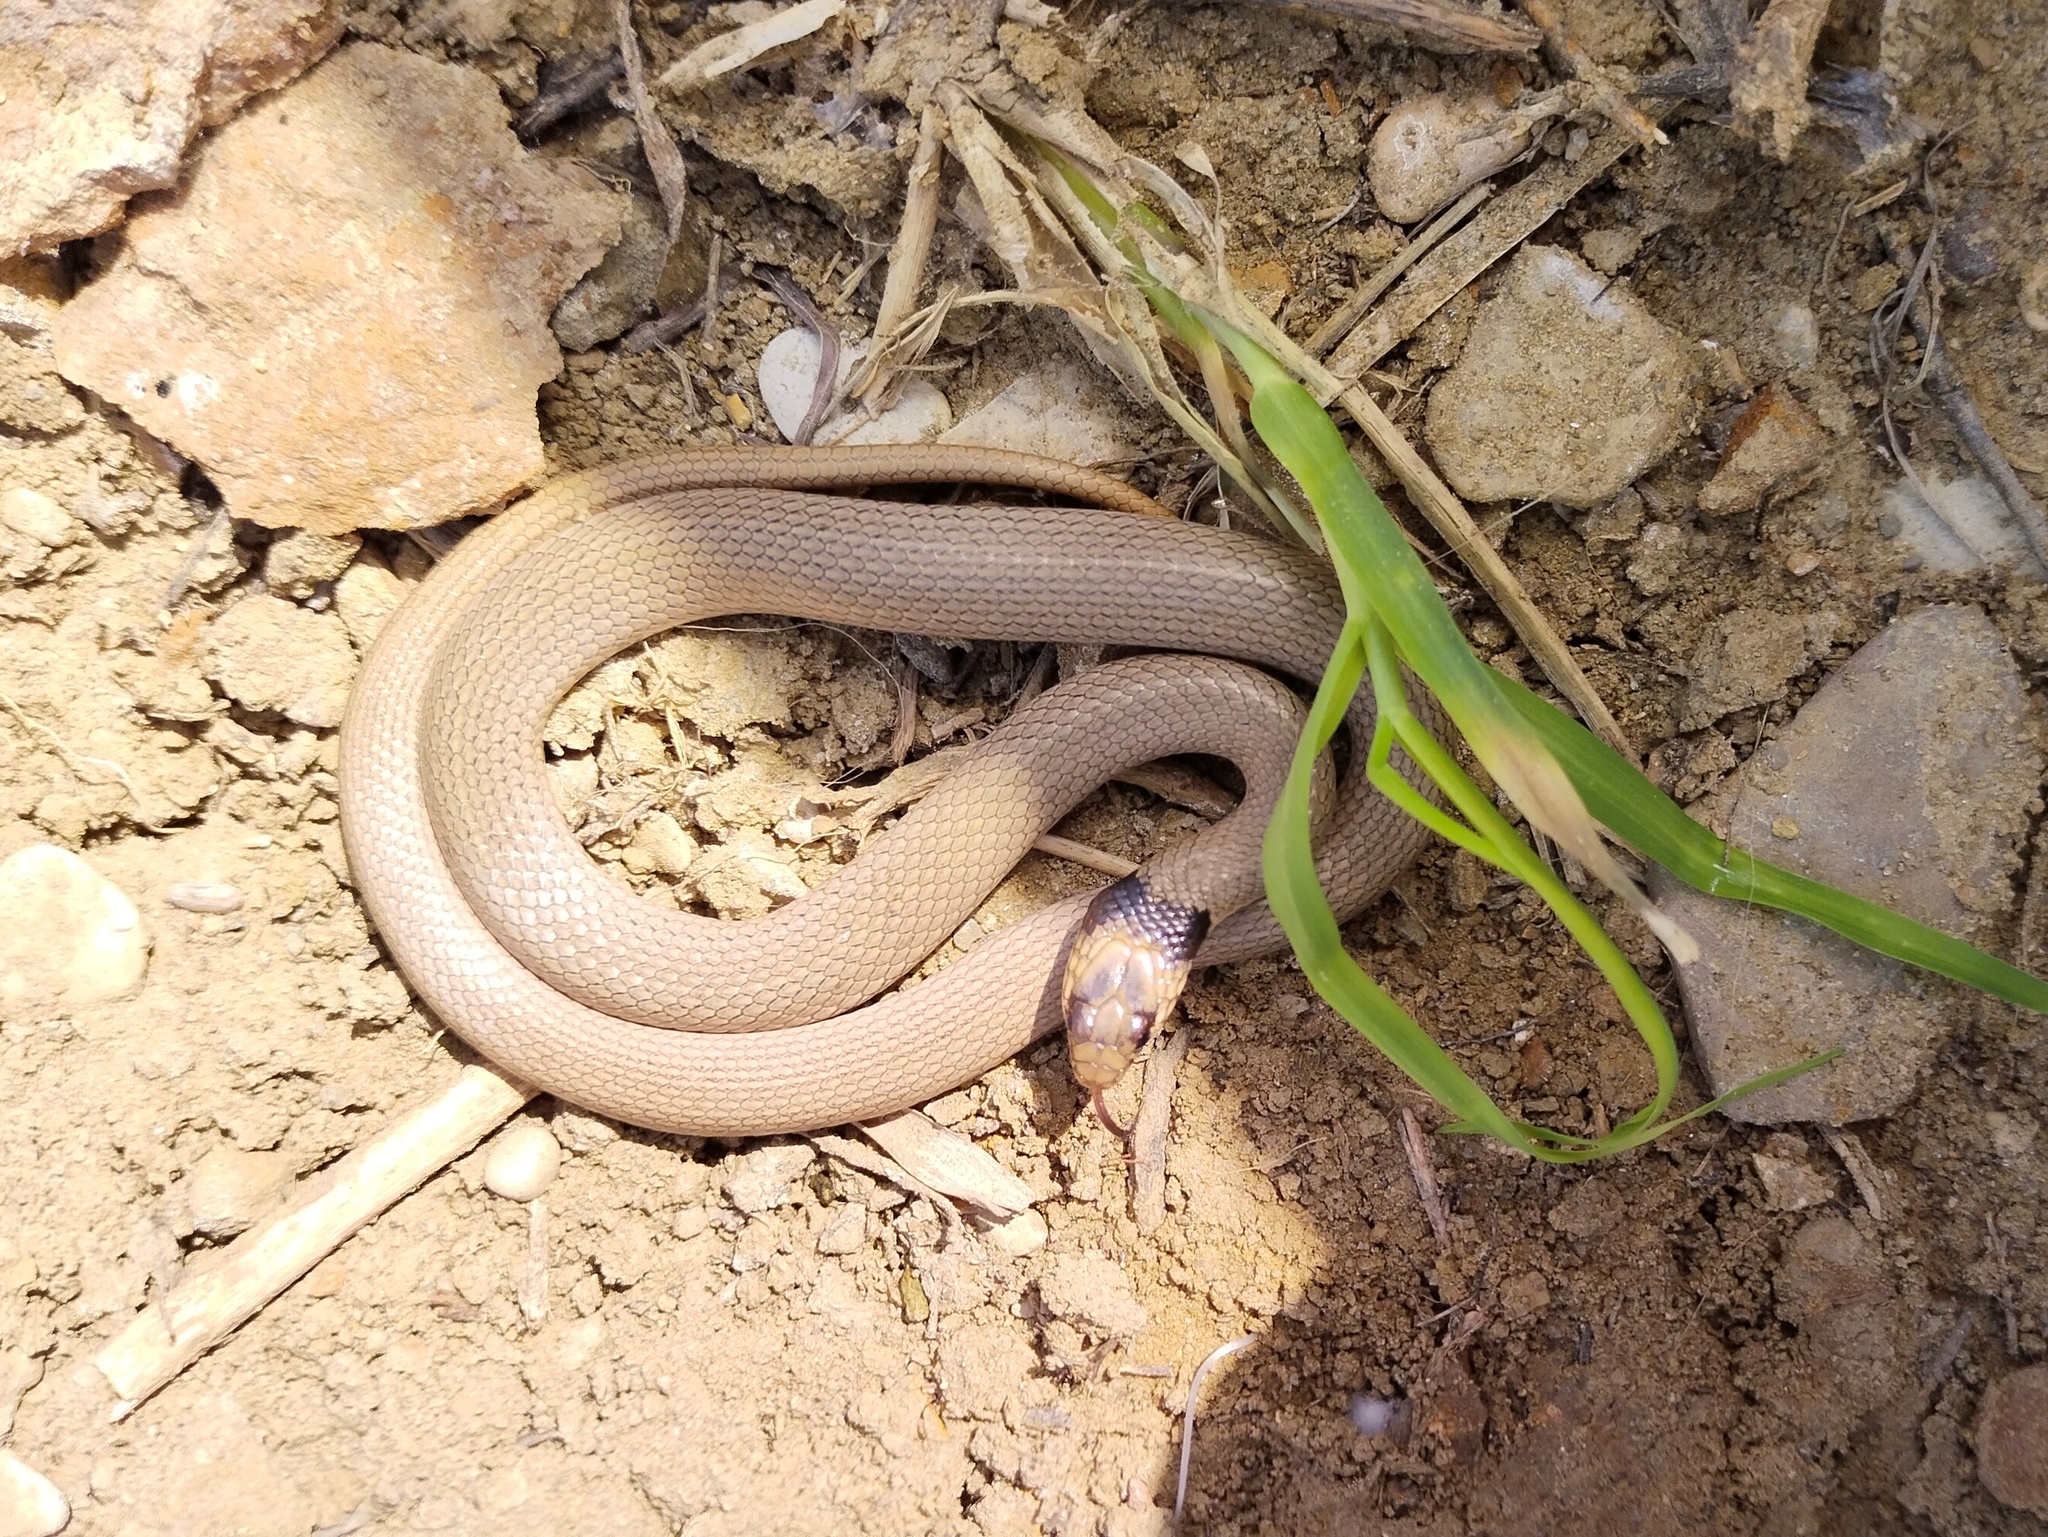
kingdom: Animalia
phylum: Chordata
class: Squamata
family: Colubridae
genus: Eirenis
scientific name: Eirenis collaris
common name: Collared dwarf racer
